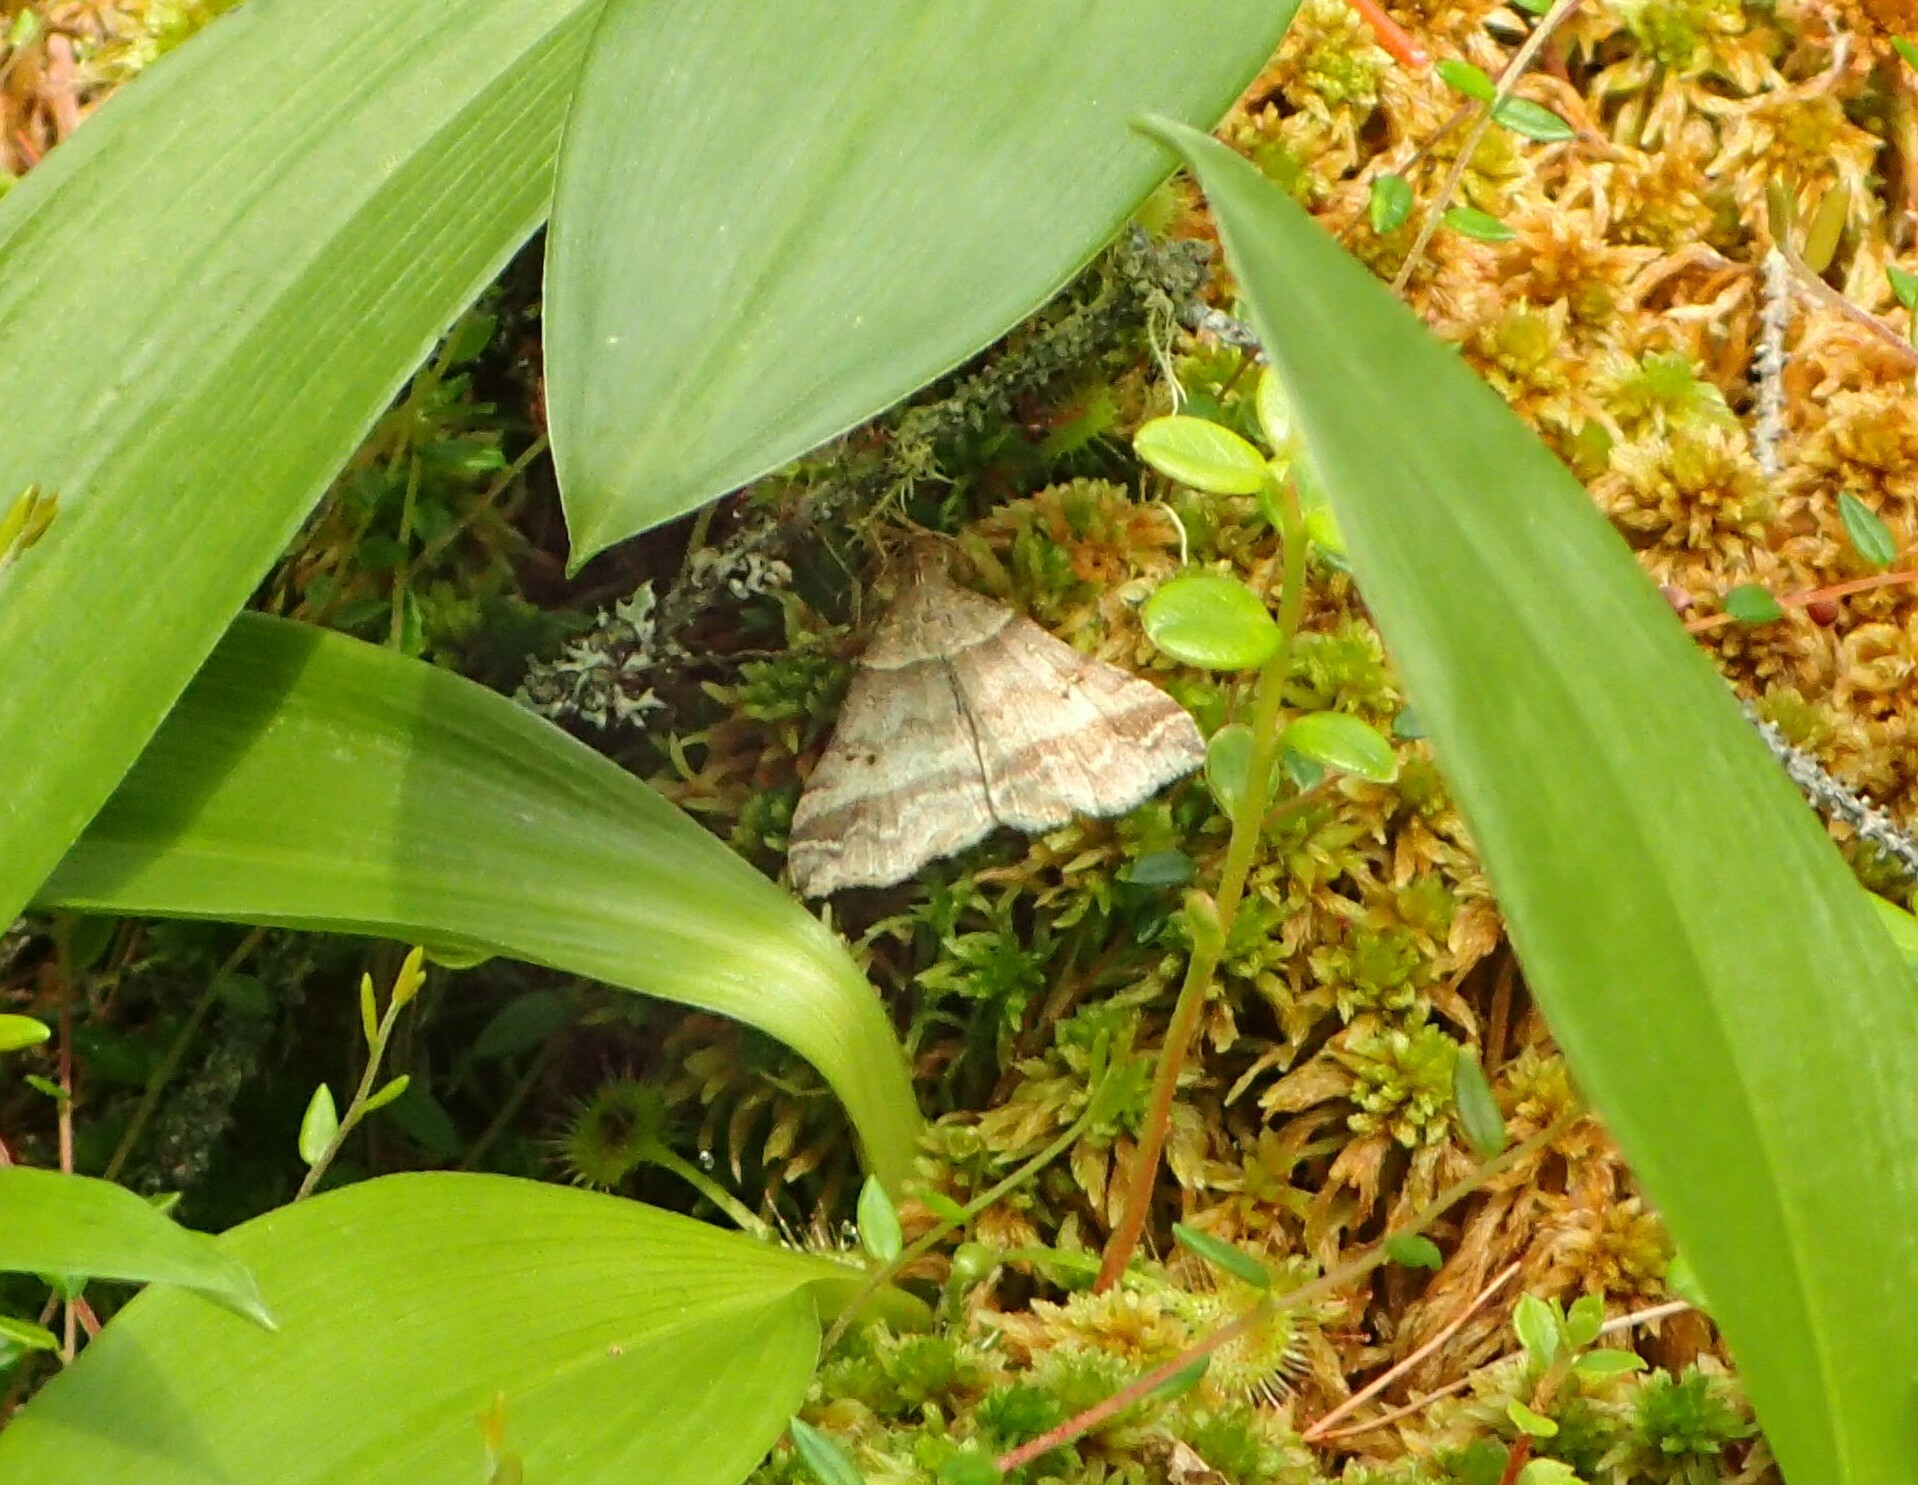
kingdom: Animalia
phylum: Arthropoda
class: Insecta
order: Lepidoptera
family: Erebidae
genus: Phaeolita
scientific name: Phaeolita pyramusalis
